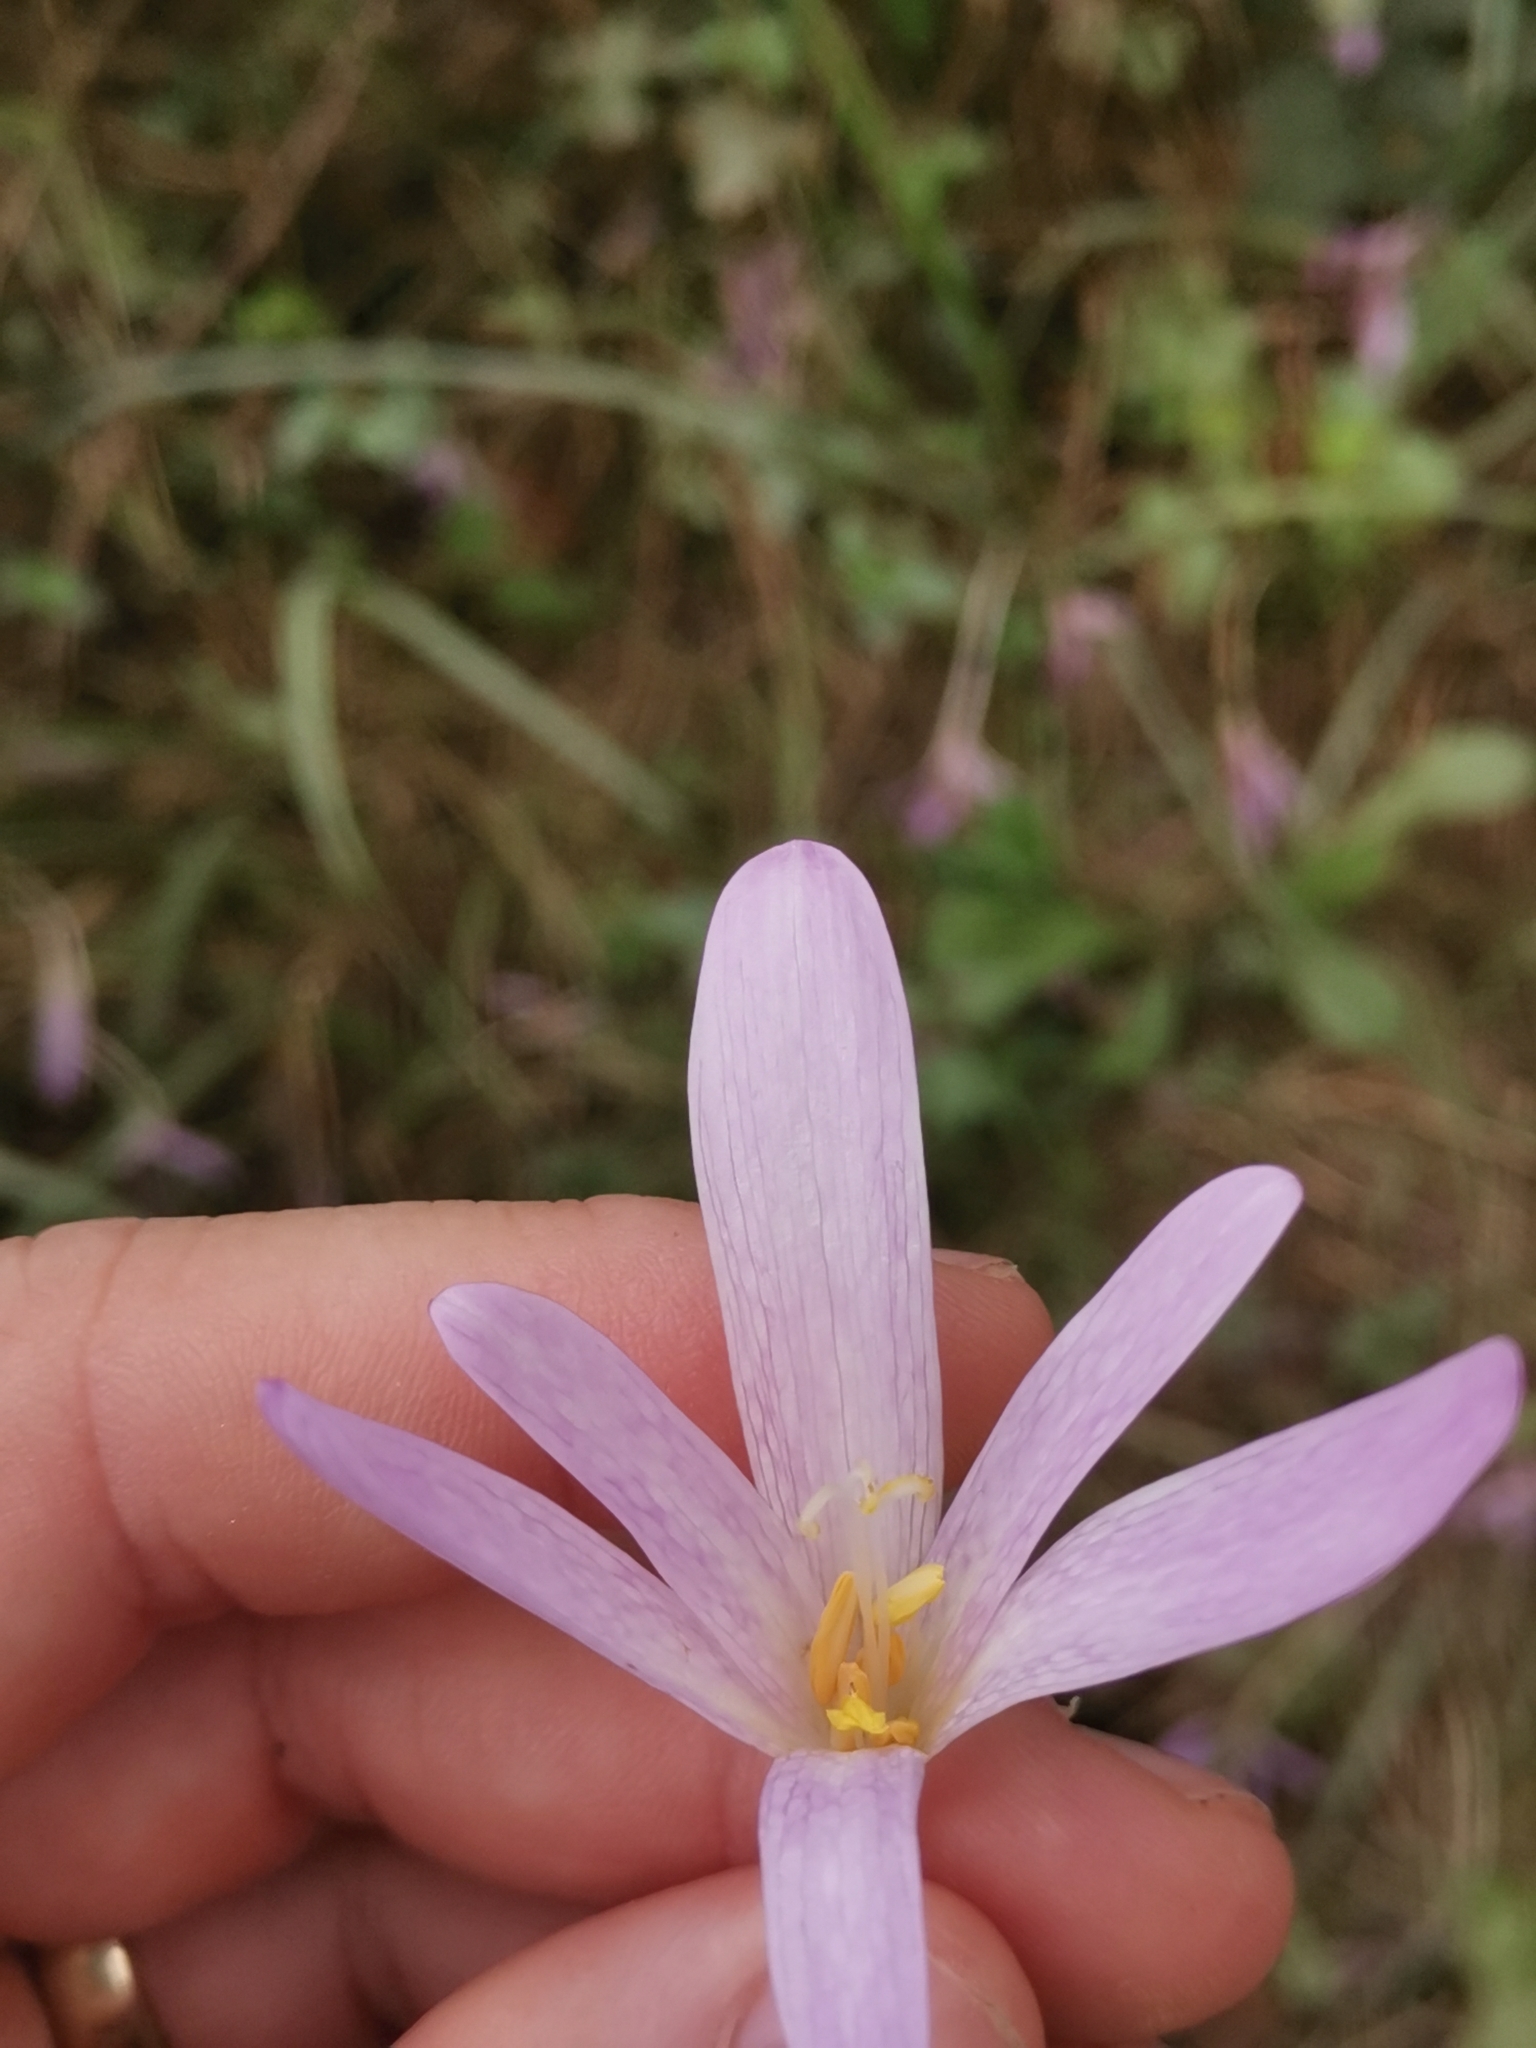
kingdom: Plantae
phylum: Tracheophyta
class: Liliopsida
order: Liliales
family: Colchicaceae
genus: Colchicum
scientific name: Colchicum haynaldii
